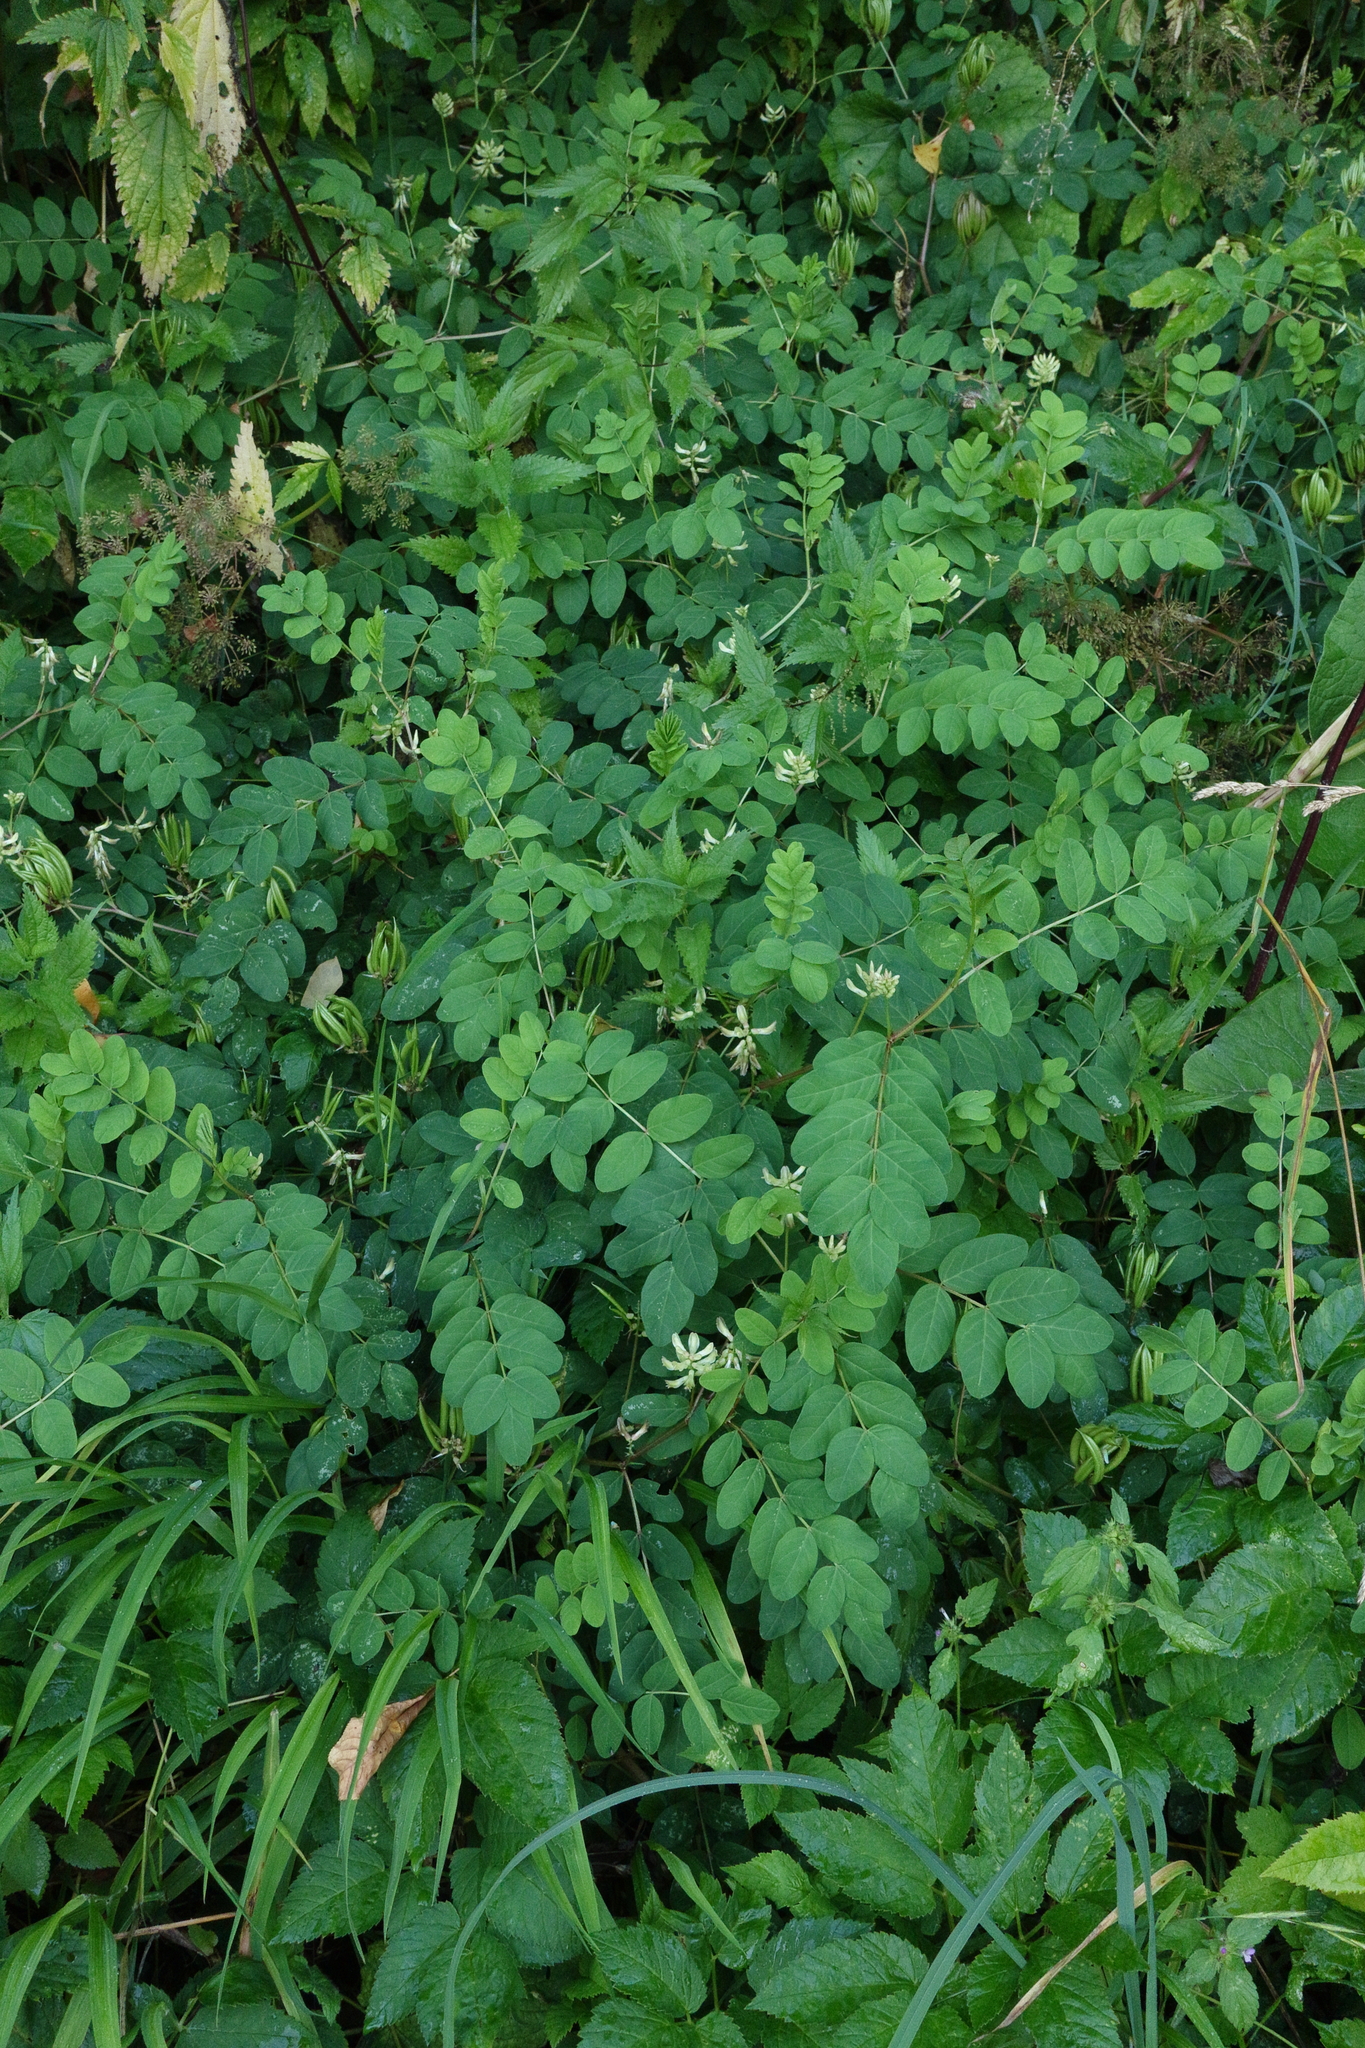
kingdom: Plantae
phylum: Tracheophyta
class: Magnoliopsida
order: Fabales
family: Fabaceae
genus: Astragalus
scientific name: Astragalus glycyphyllos
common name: Wild liquorice
